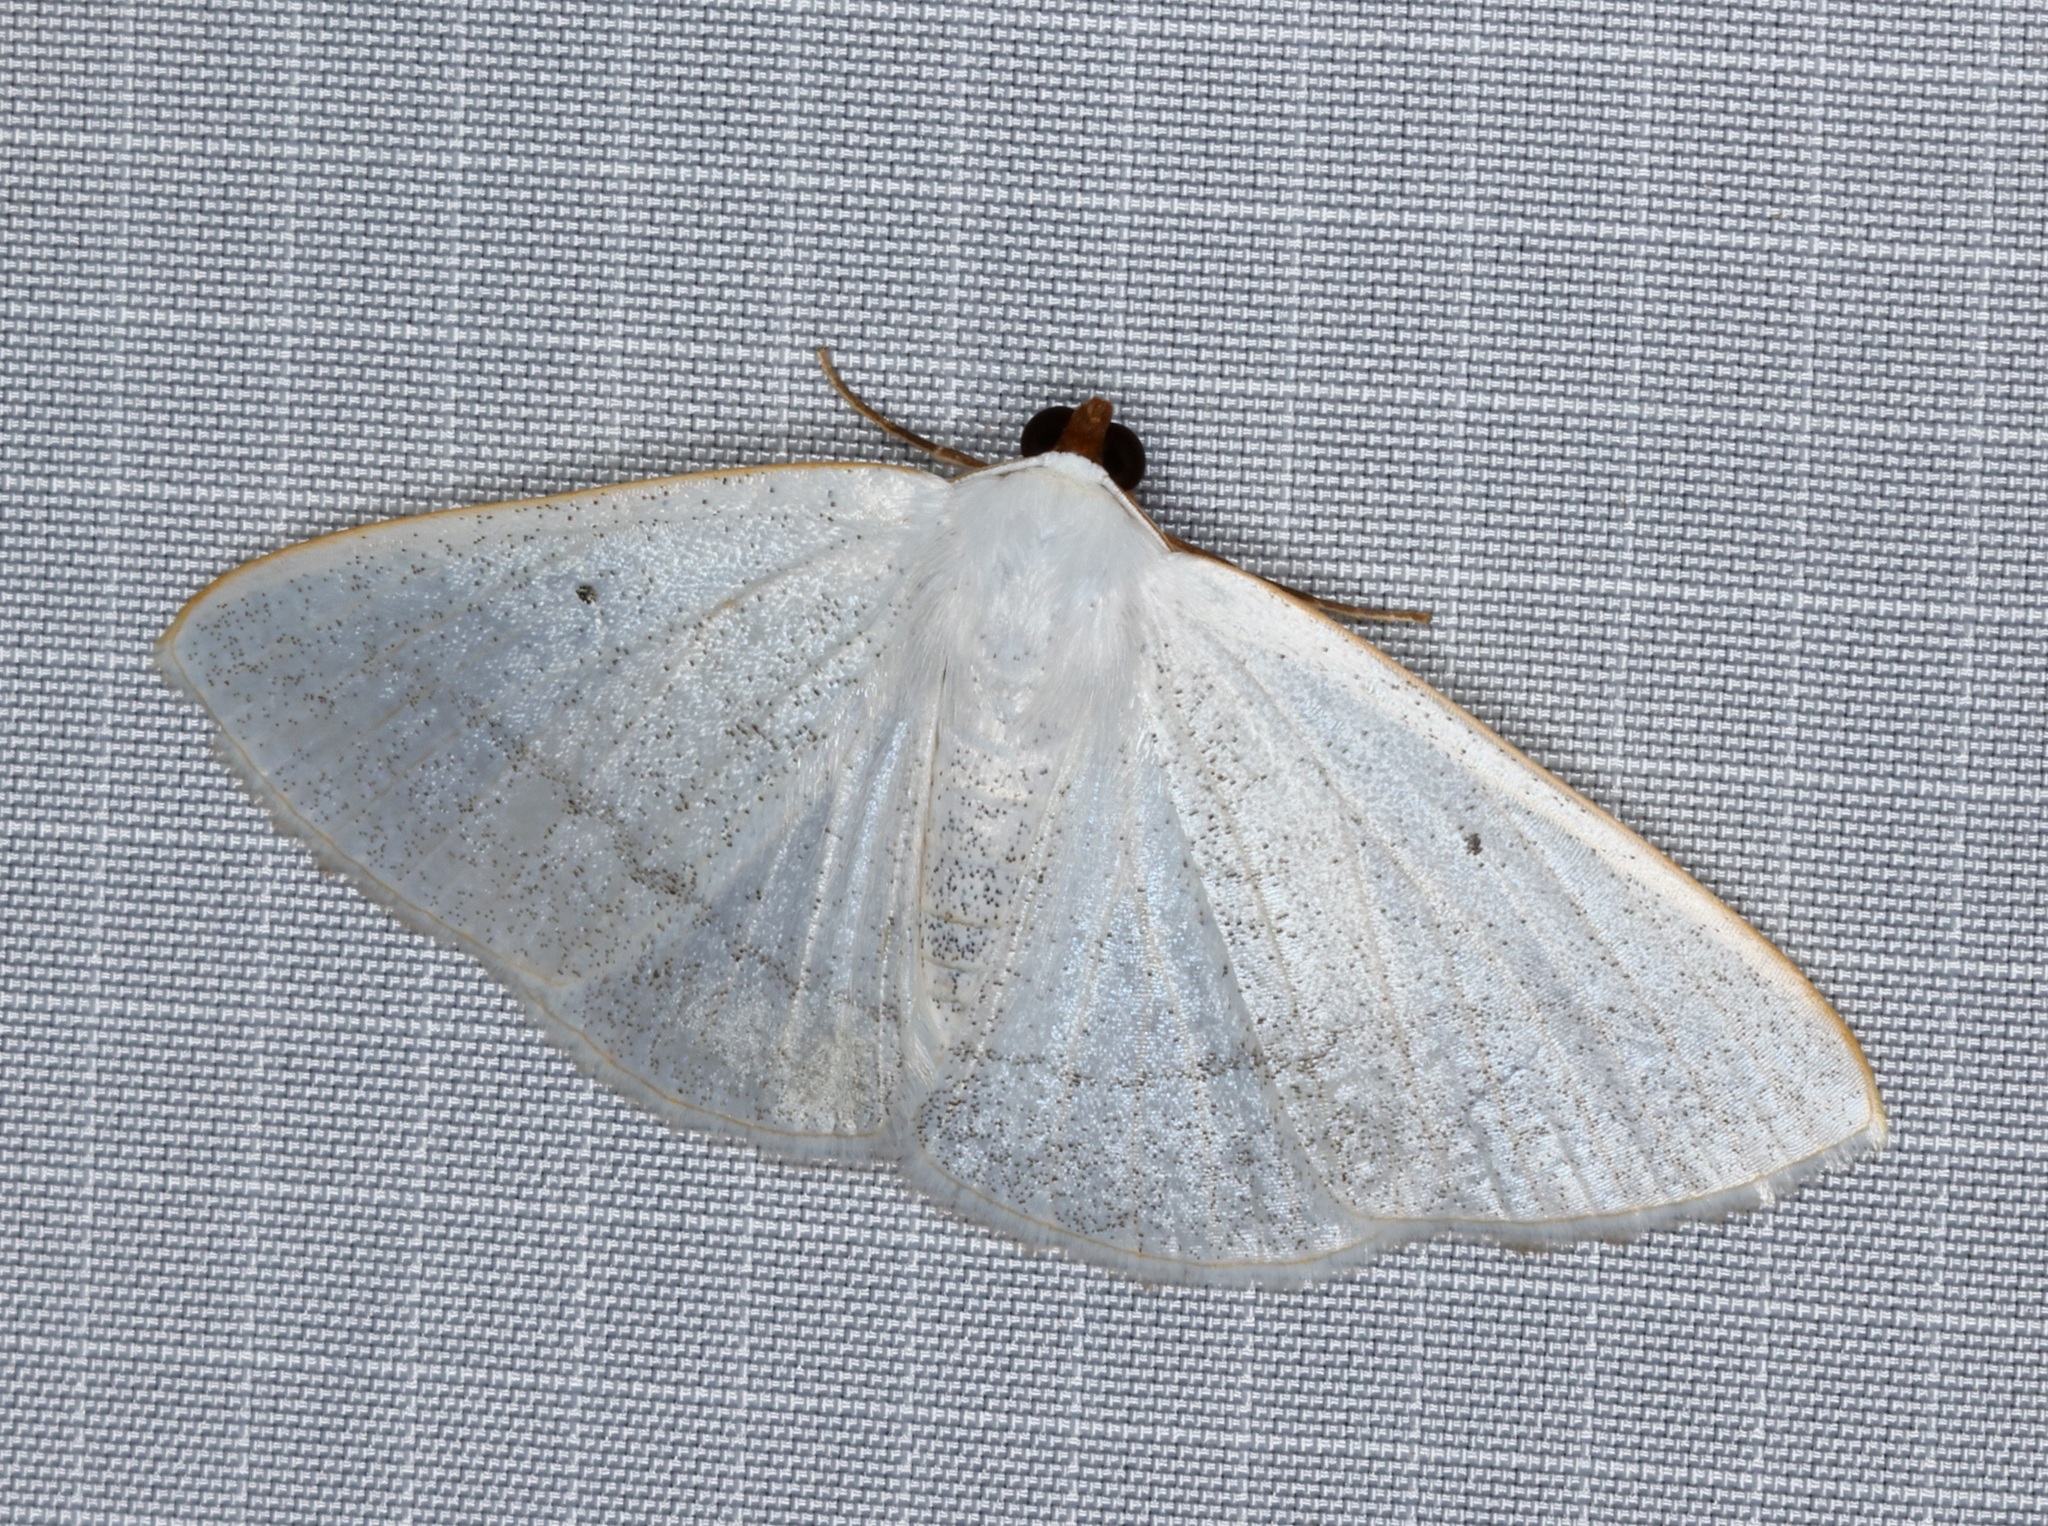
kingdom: Animalia
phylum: Arthropoda
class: Insecta
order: Lepidoptera
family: Geometridae
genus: Lomographa
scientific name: Lomographa claripennis
